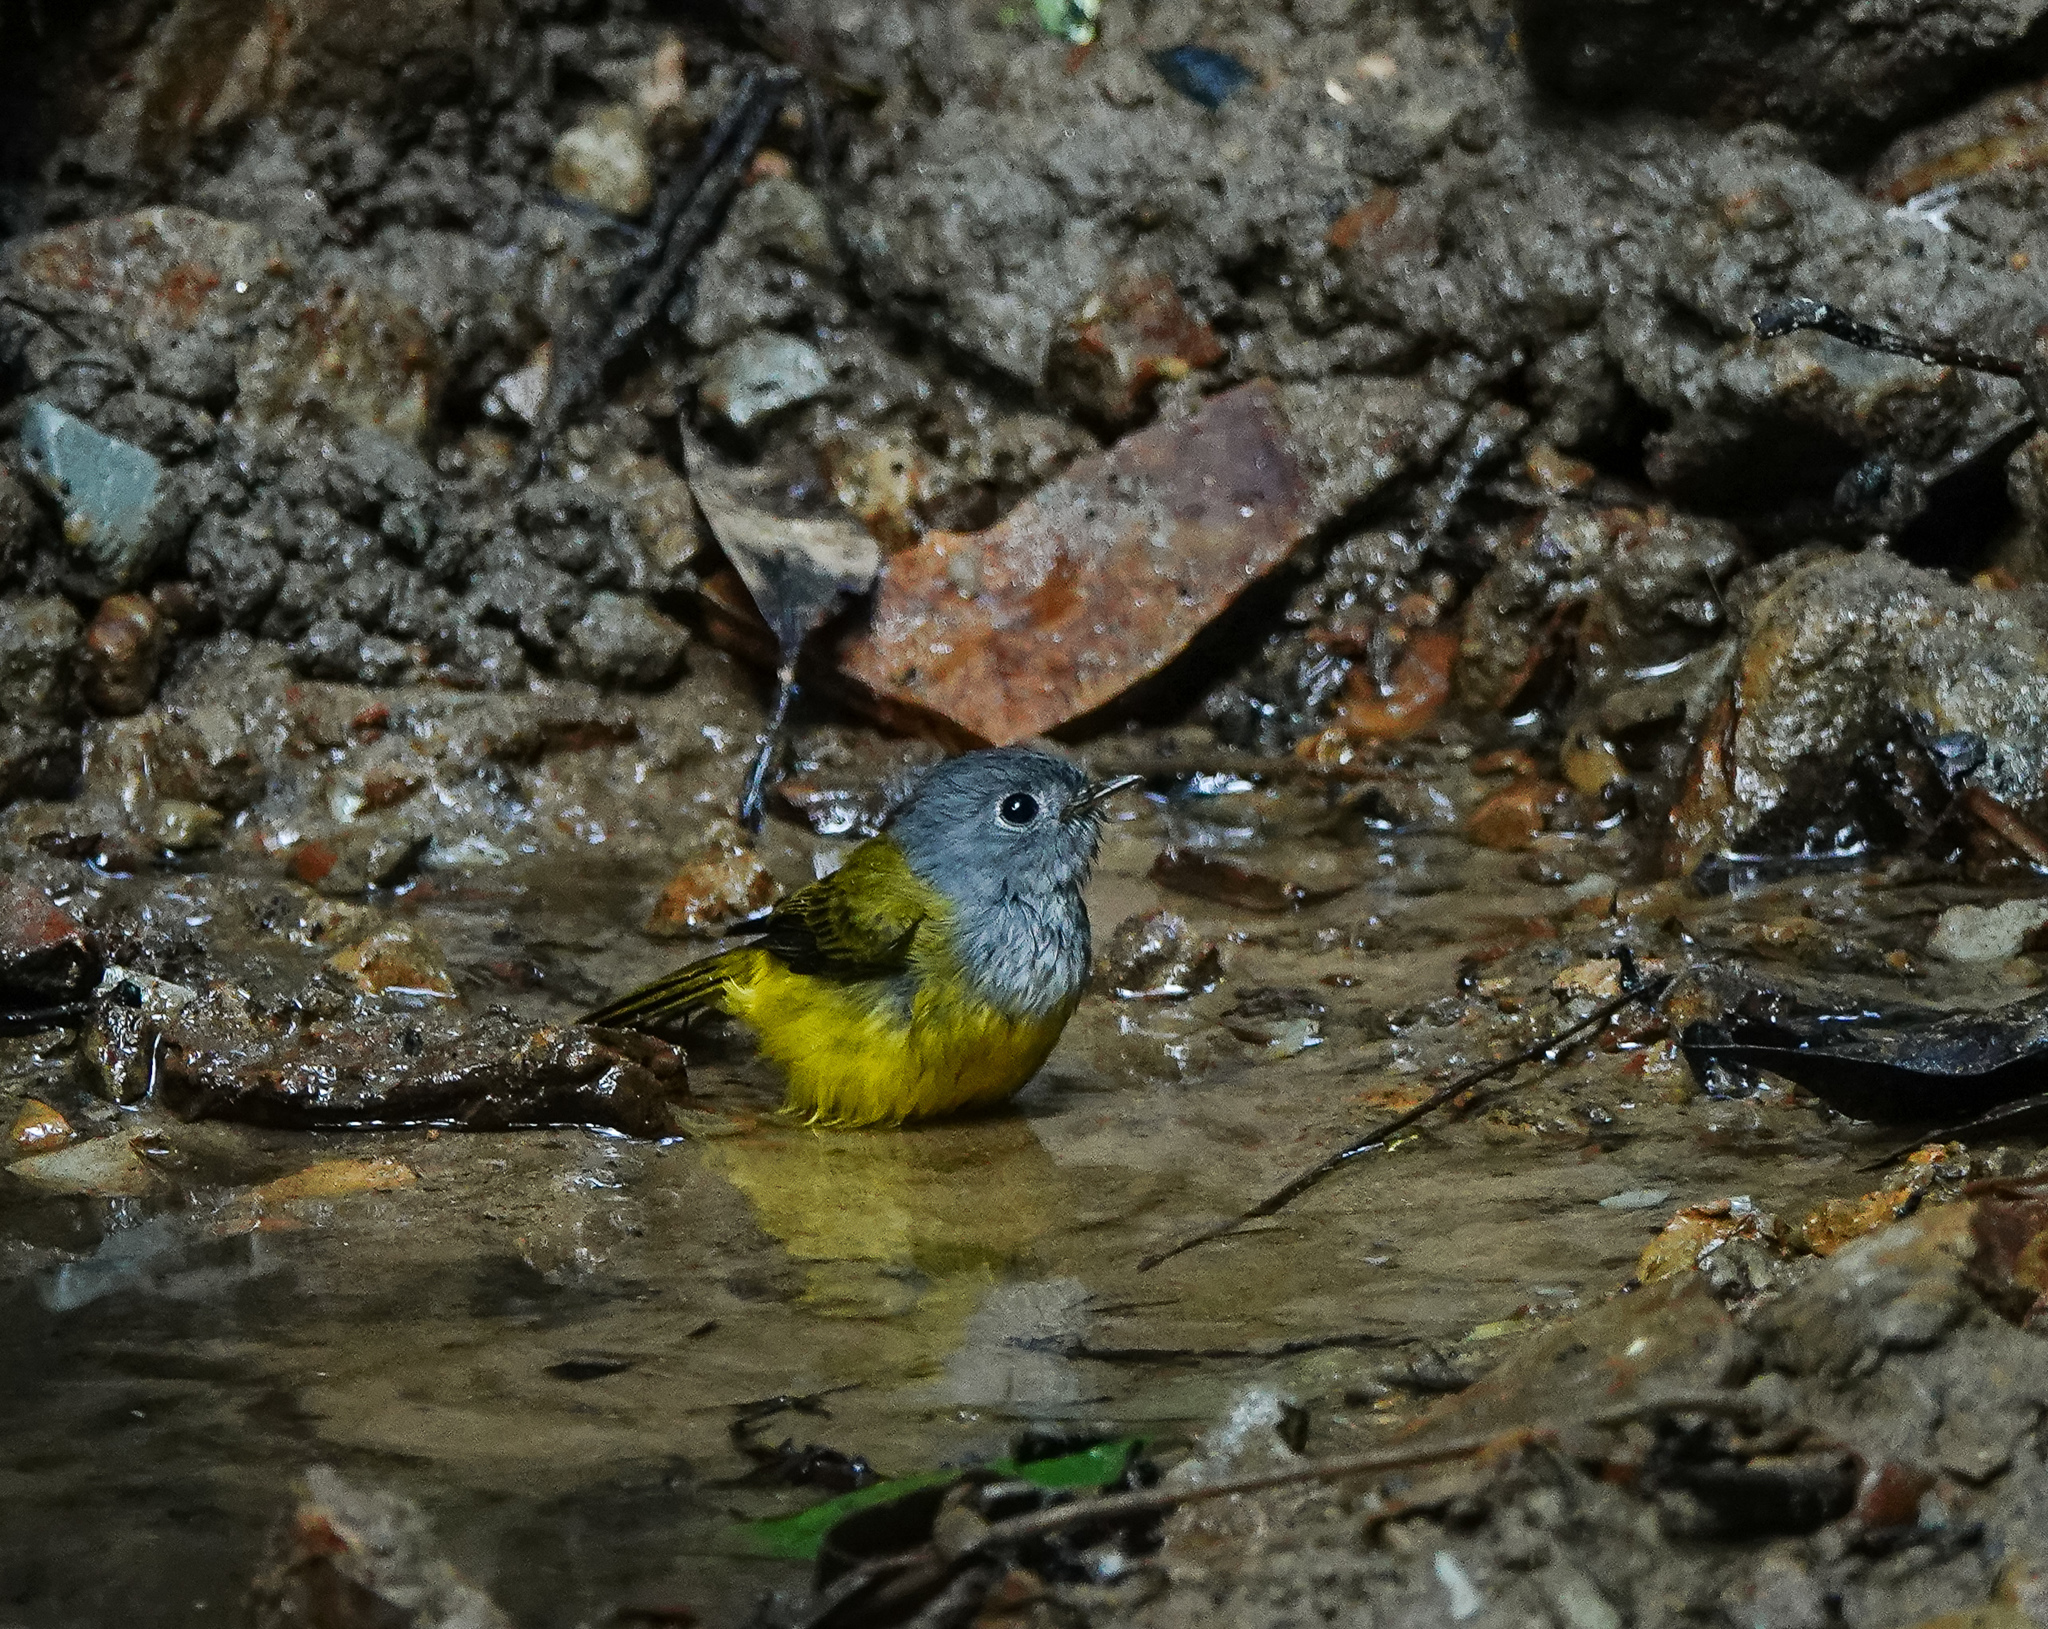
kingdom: Animalia
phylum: Chordata
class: Aves
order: Passeriformes
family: Stenostiridae
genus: Culicicapa
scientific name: Culicicapa ceylonensis
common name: Grey-headed canary-flycatcher
